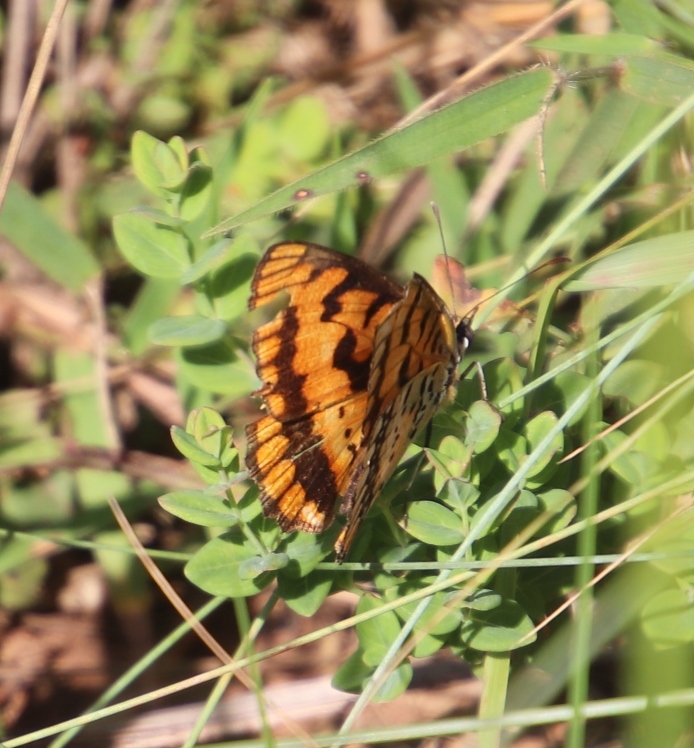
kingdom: Animalia
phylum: Arthropoda
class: Insecta
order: Lepidoptera
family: Nymphalidae
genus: Byblia
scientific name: Byblia ilithyia
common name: Spotted joker
